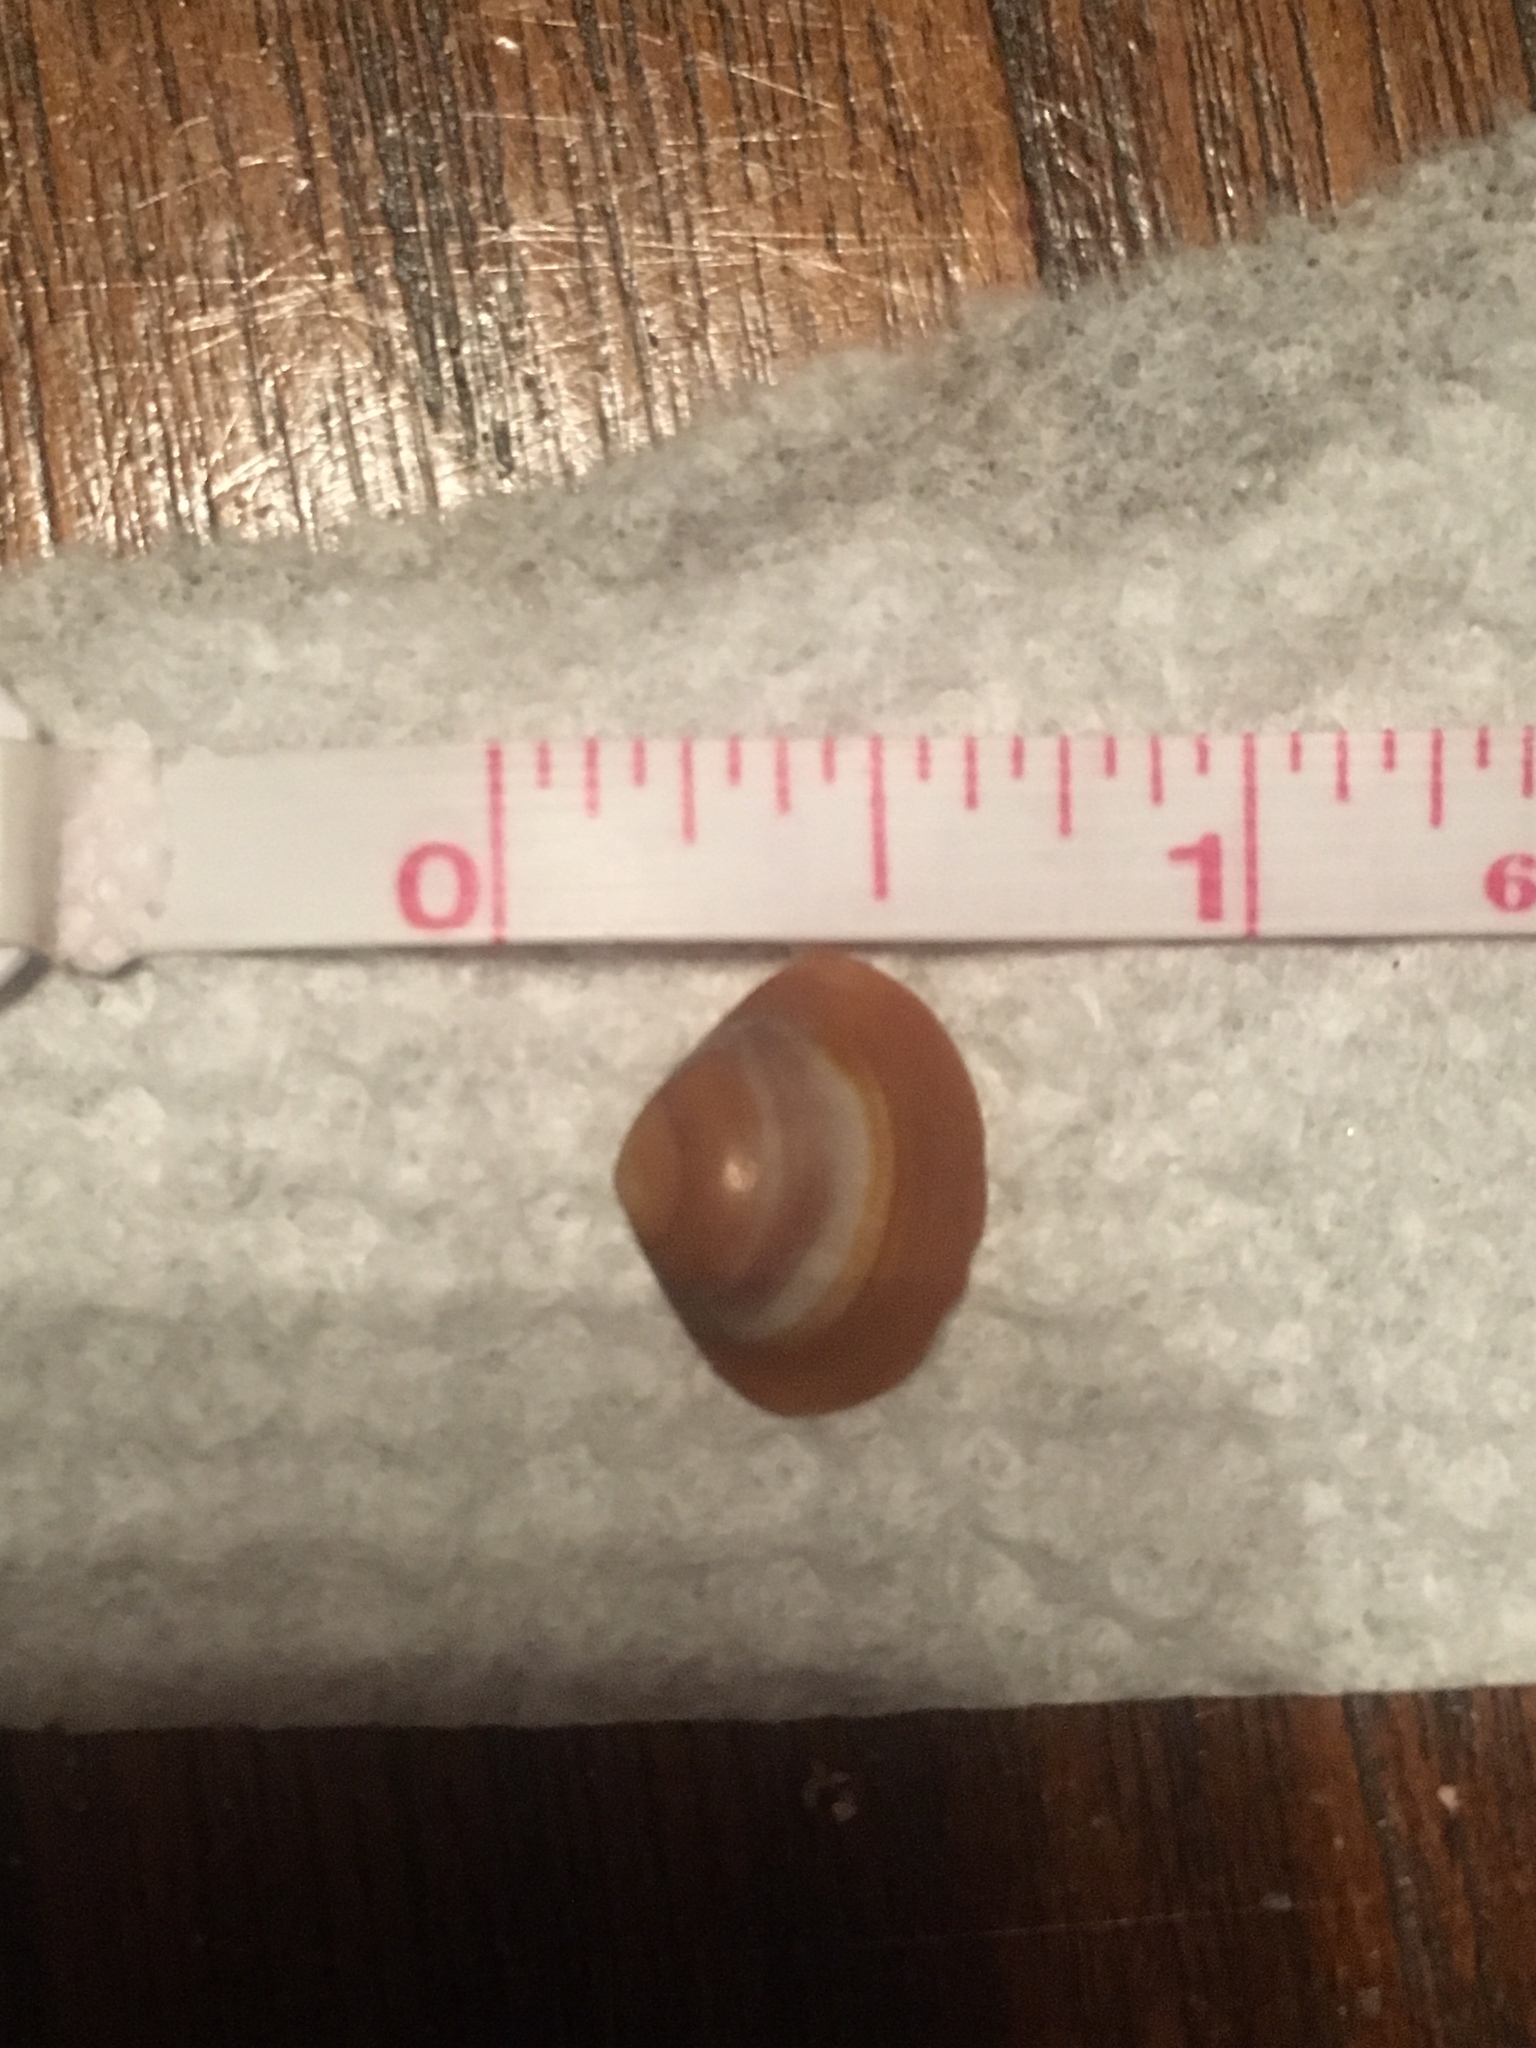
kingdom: Animalia
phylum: Mollusca
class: Bivalvia
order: Venerida
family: Mactridae
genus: Mulinia
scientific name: Mulinia lateralis
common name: Dwarf surfclam
